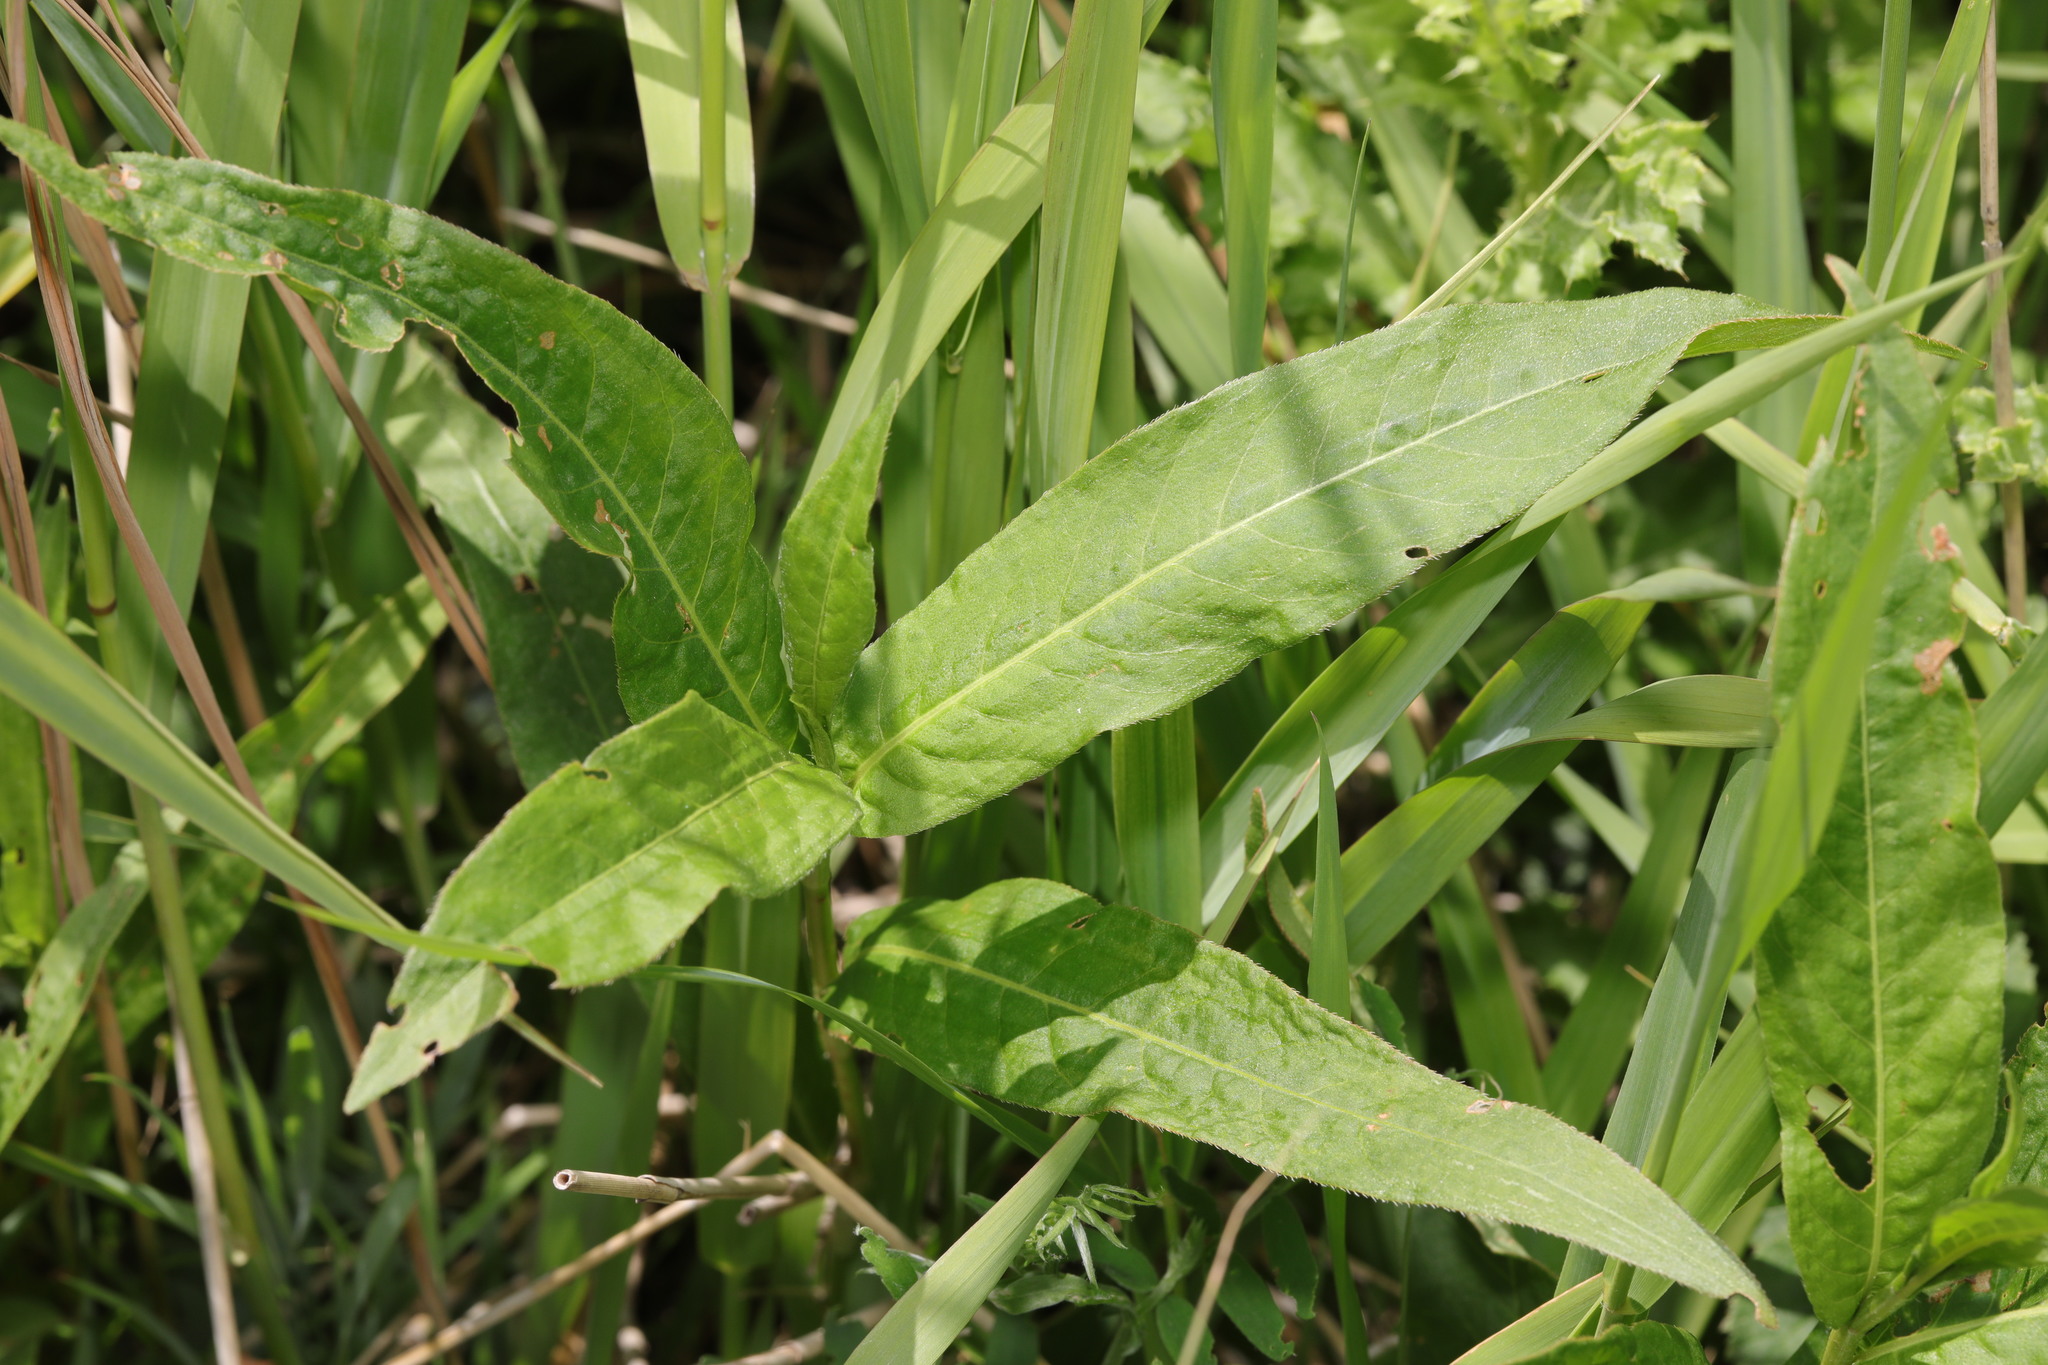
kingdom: Plantae
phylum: Tracheophyta
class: Magnoliopsida
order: Caryophyllales
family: Polygonaceae
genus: Persicaria
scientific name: Persicaria amphibia
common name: Amphibious bistort
